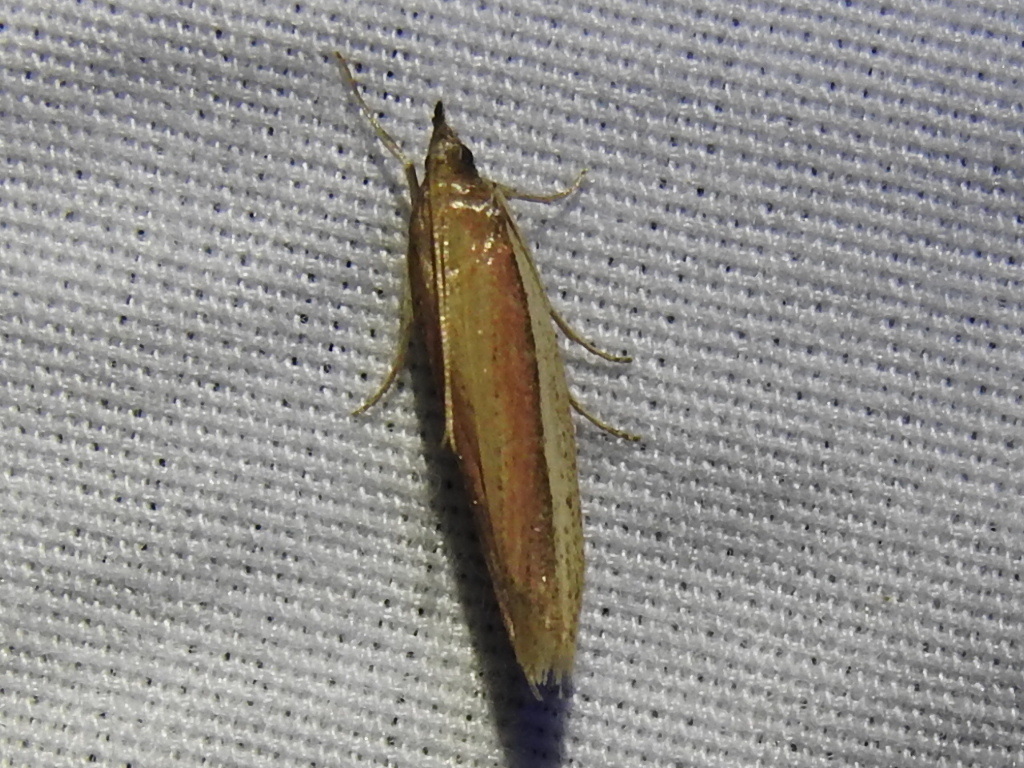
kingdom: Animalia
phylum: Arthropoda
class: Insecta
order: Lepidoptera
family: Pyralidae
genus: Tampa
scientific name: Tampa dimediatella
